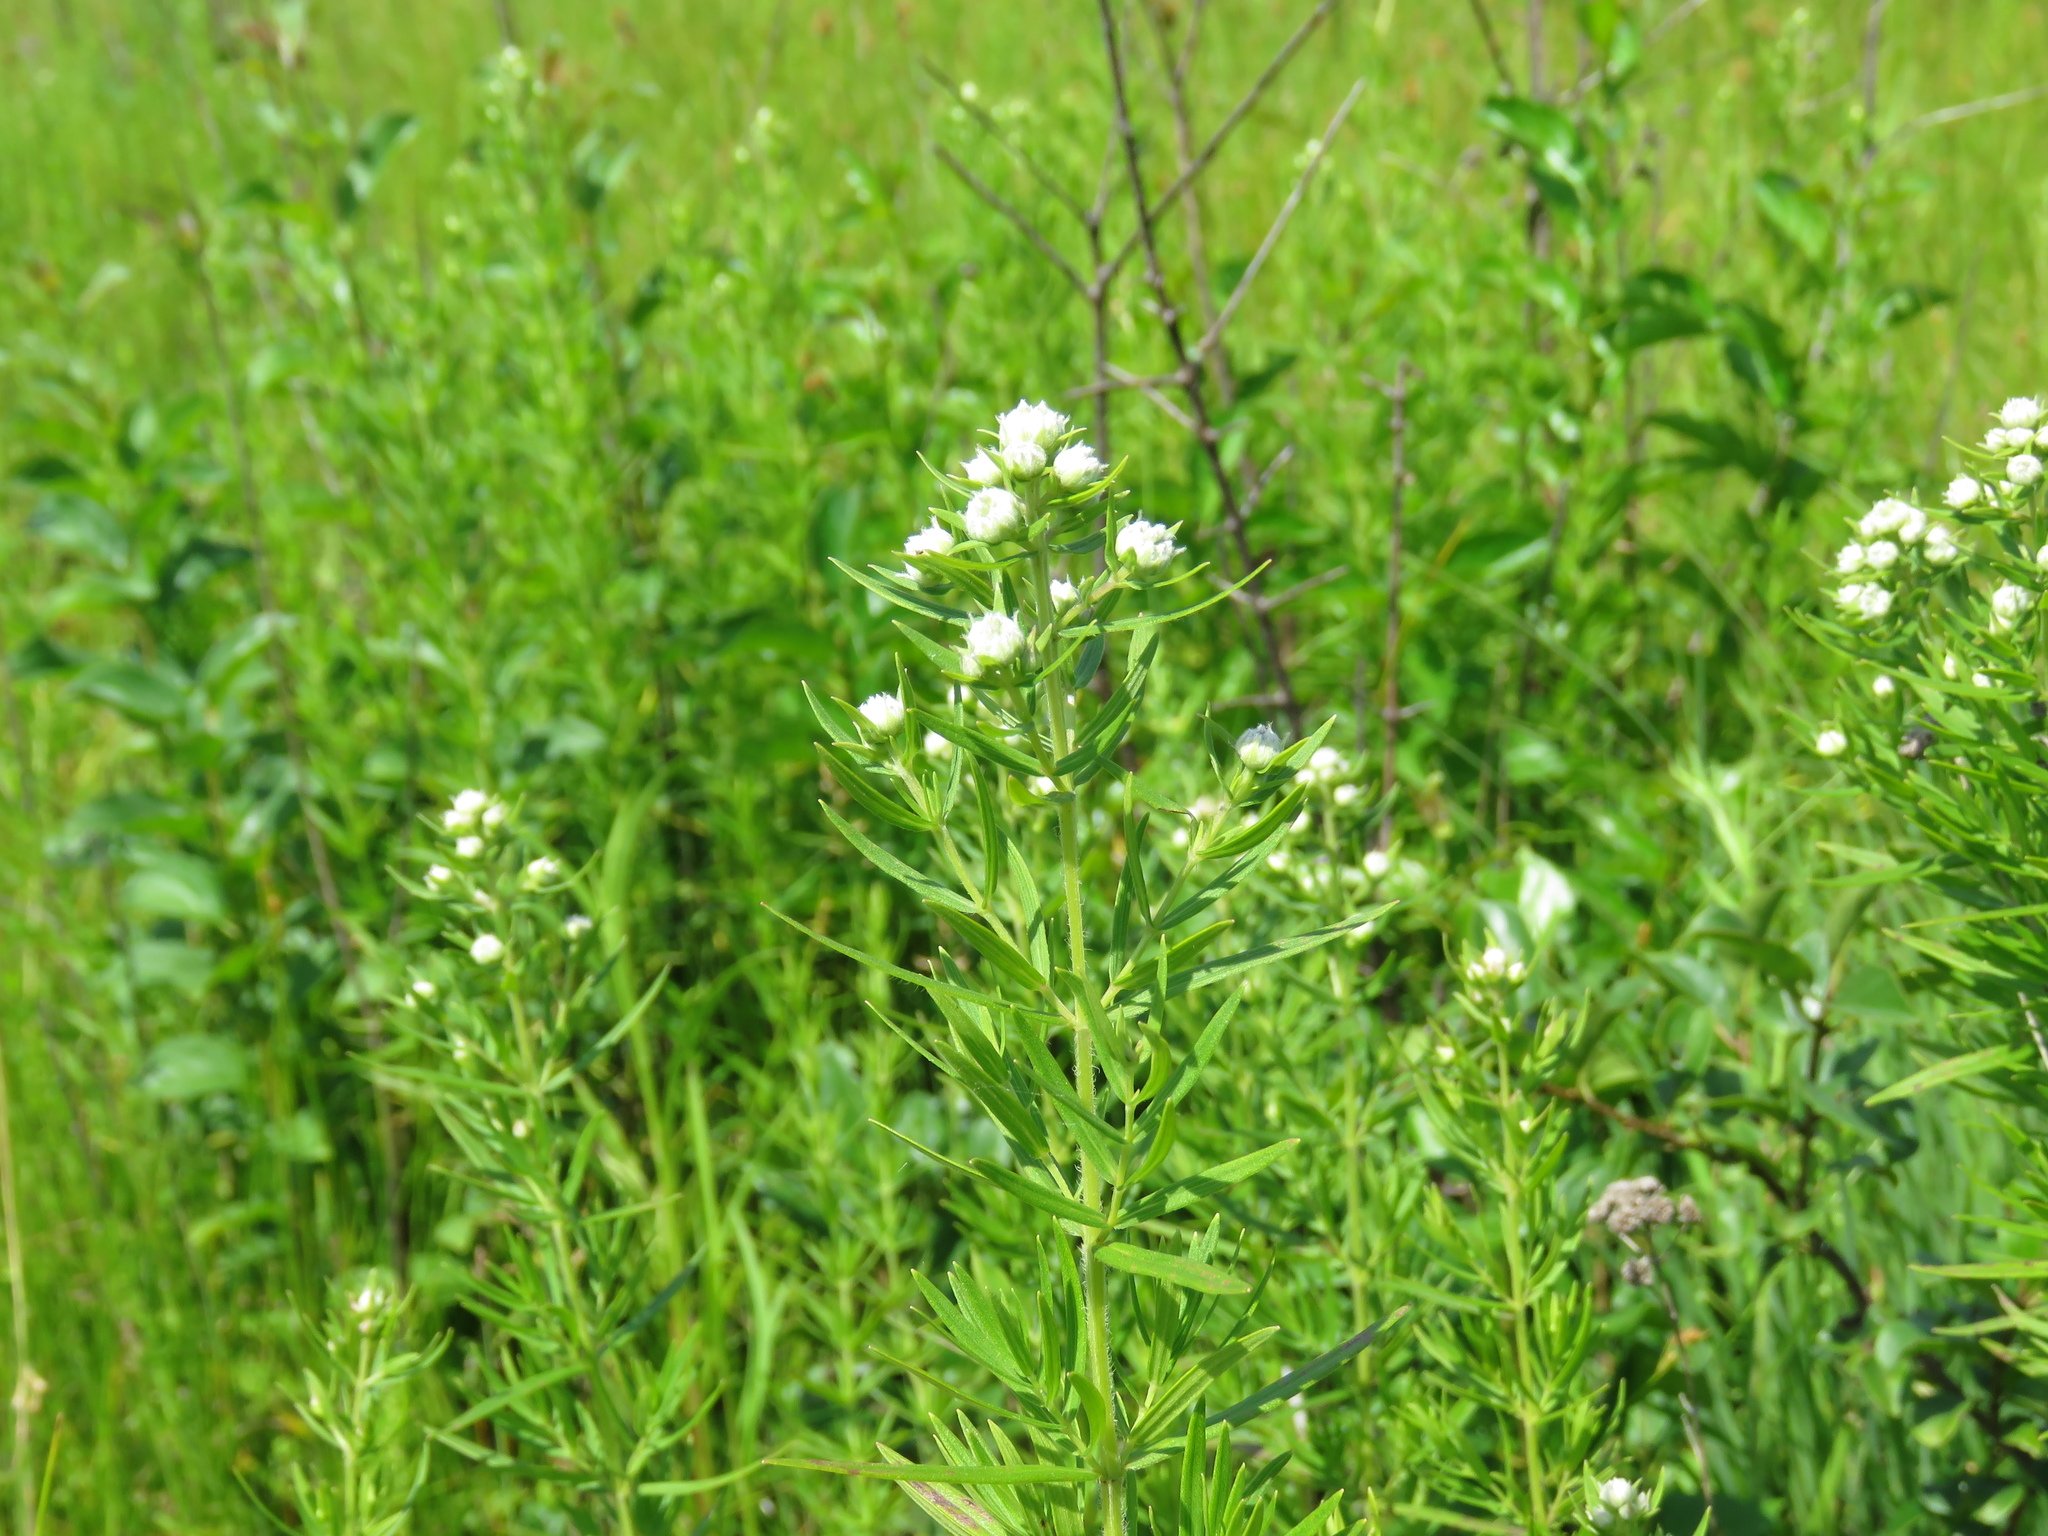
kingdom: Plantae
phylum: Tracheophyta
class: Magnoliopsida
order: Lamiales
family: Lamiaceae
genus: Pycnanthemum
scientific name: Pycnanthemum virginianum
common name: Virginia mountain-mint
